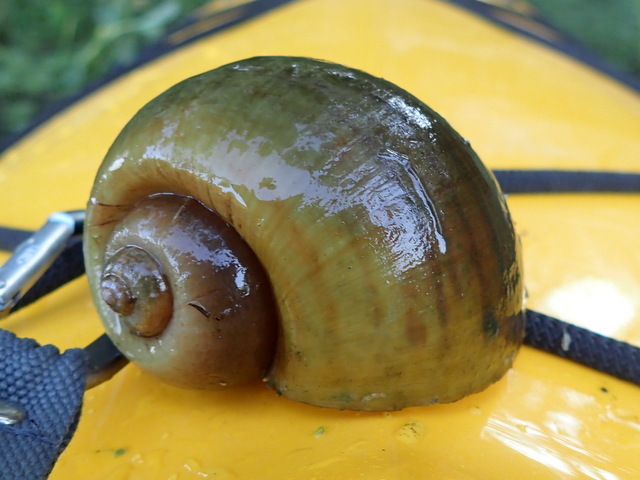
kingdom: Animalia
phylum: Mollusca
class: Gastropoda
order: Architaenioglossa
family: Ampullariidae
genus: Pomacea
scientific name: Pomacea maculata
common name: Giant applesnail
